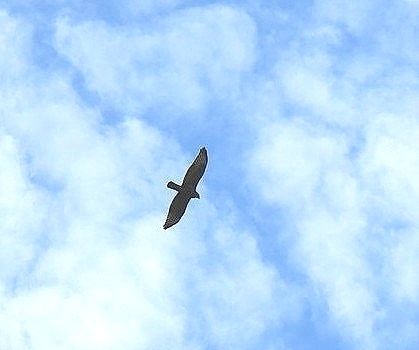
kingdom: Animalia
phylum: Chordata
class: Aves
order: Accipitriformes
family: Accipitridae
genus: Buteo
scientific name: Buteo buteo
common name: Common buzzard
